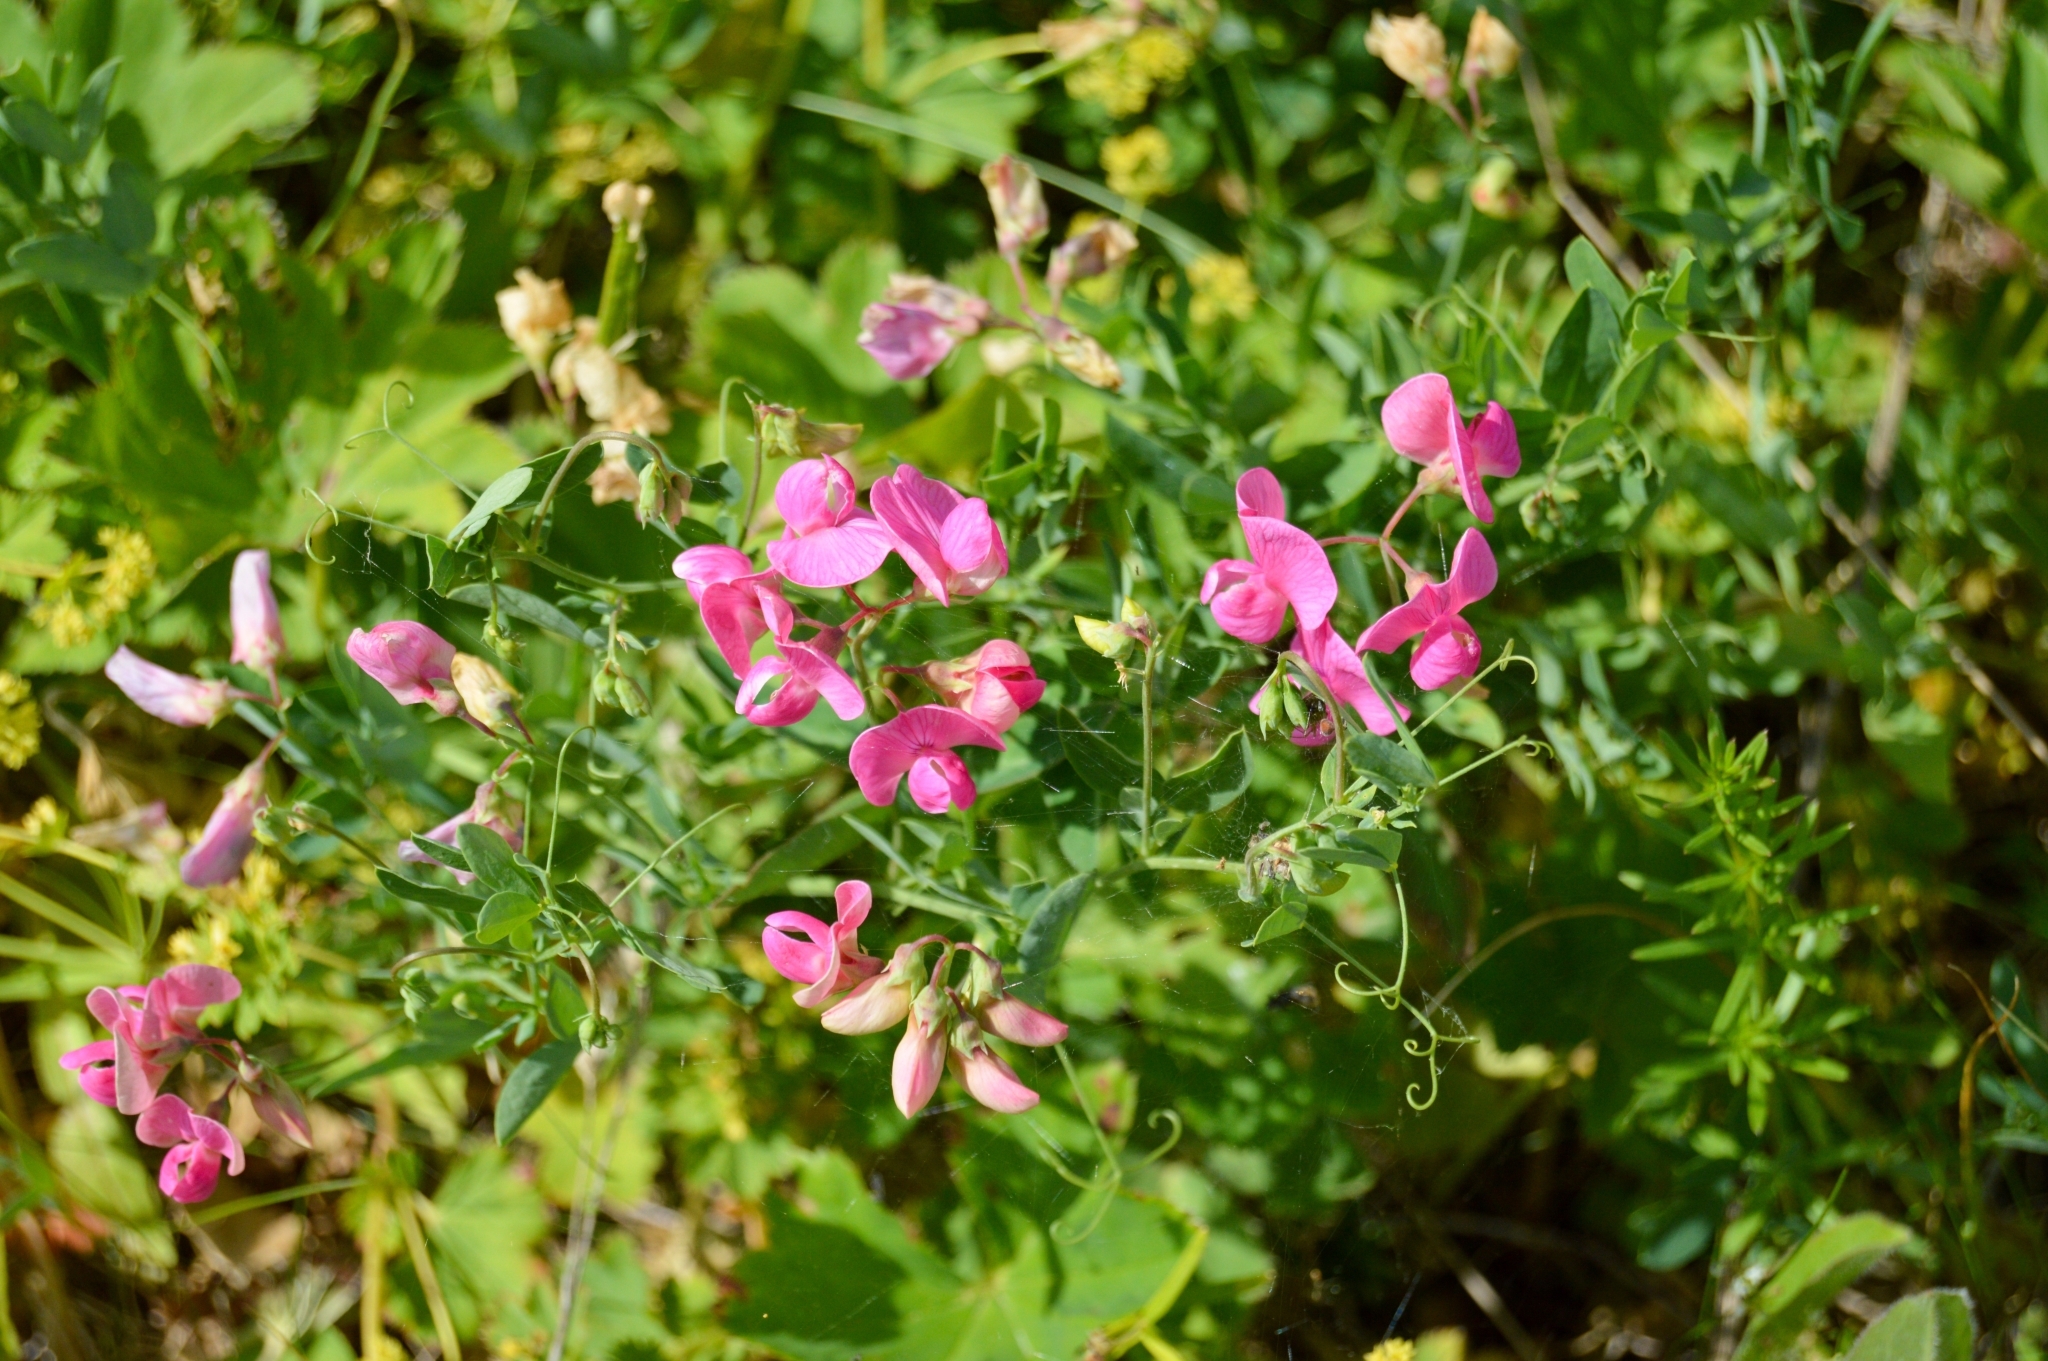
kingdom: Plantae
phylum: Tracheophyta
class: Magnoliopsida
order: Fabales
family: Fabaceae
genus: Lathyrus
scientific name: Lathyrus tuberosus
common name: Tuberous pea
